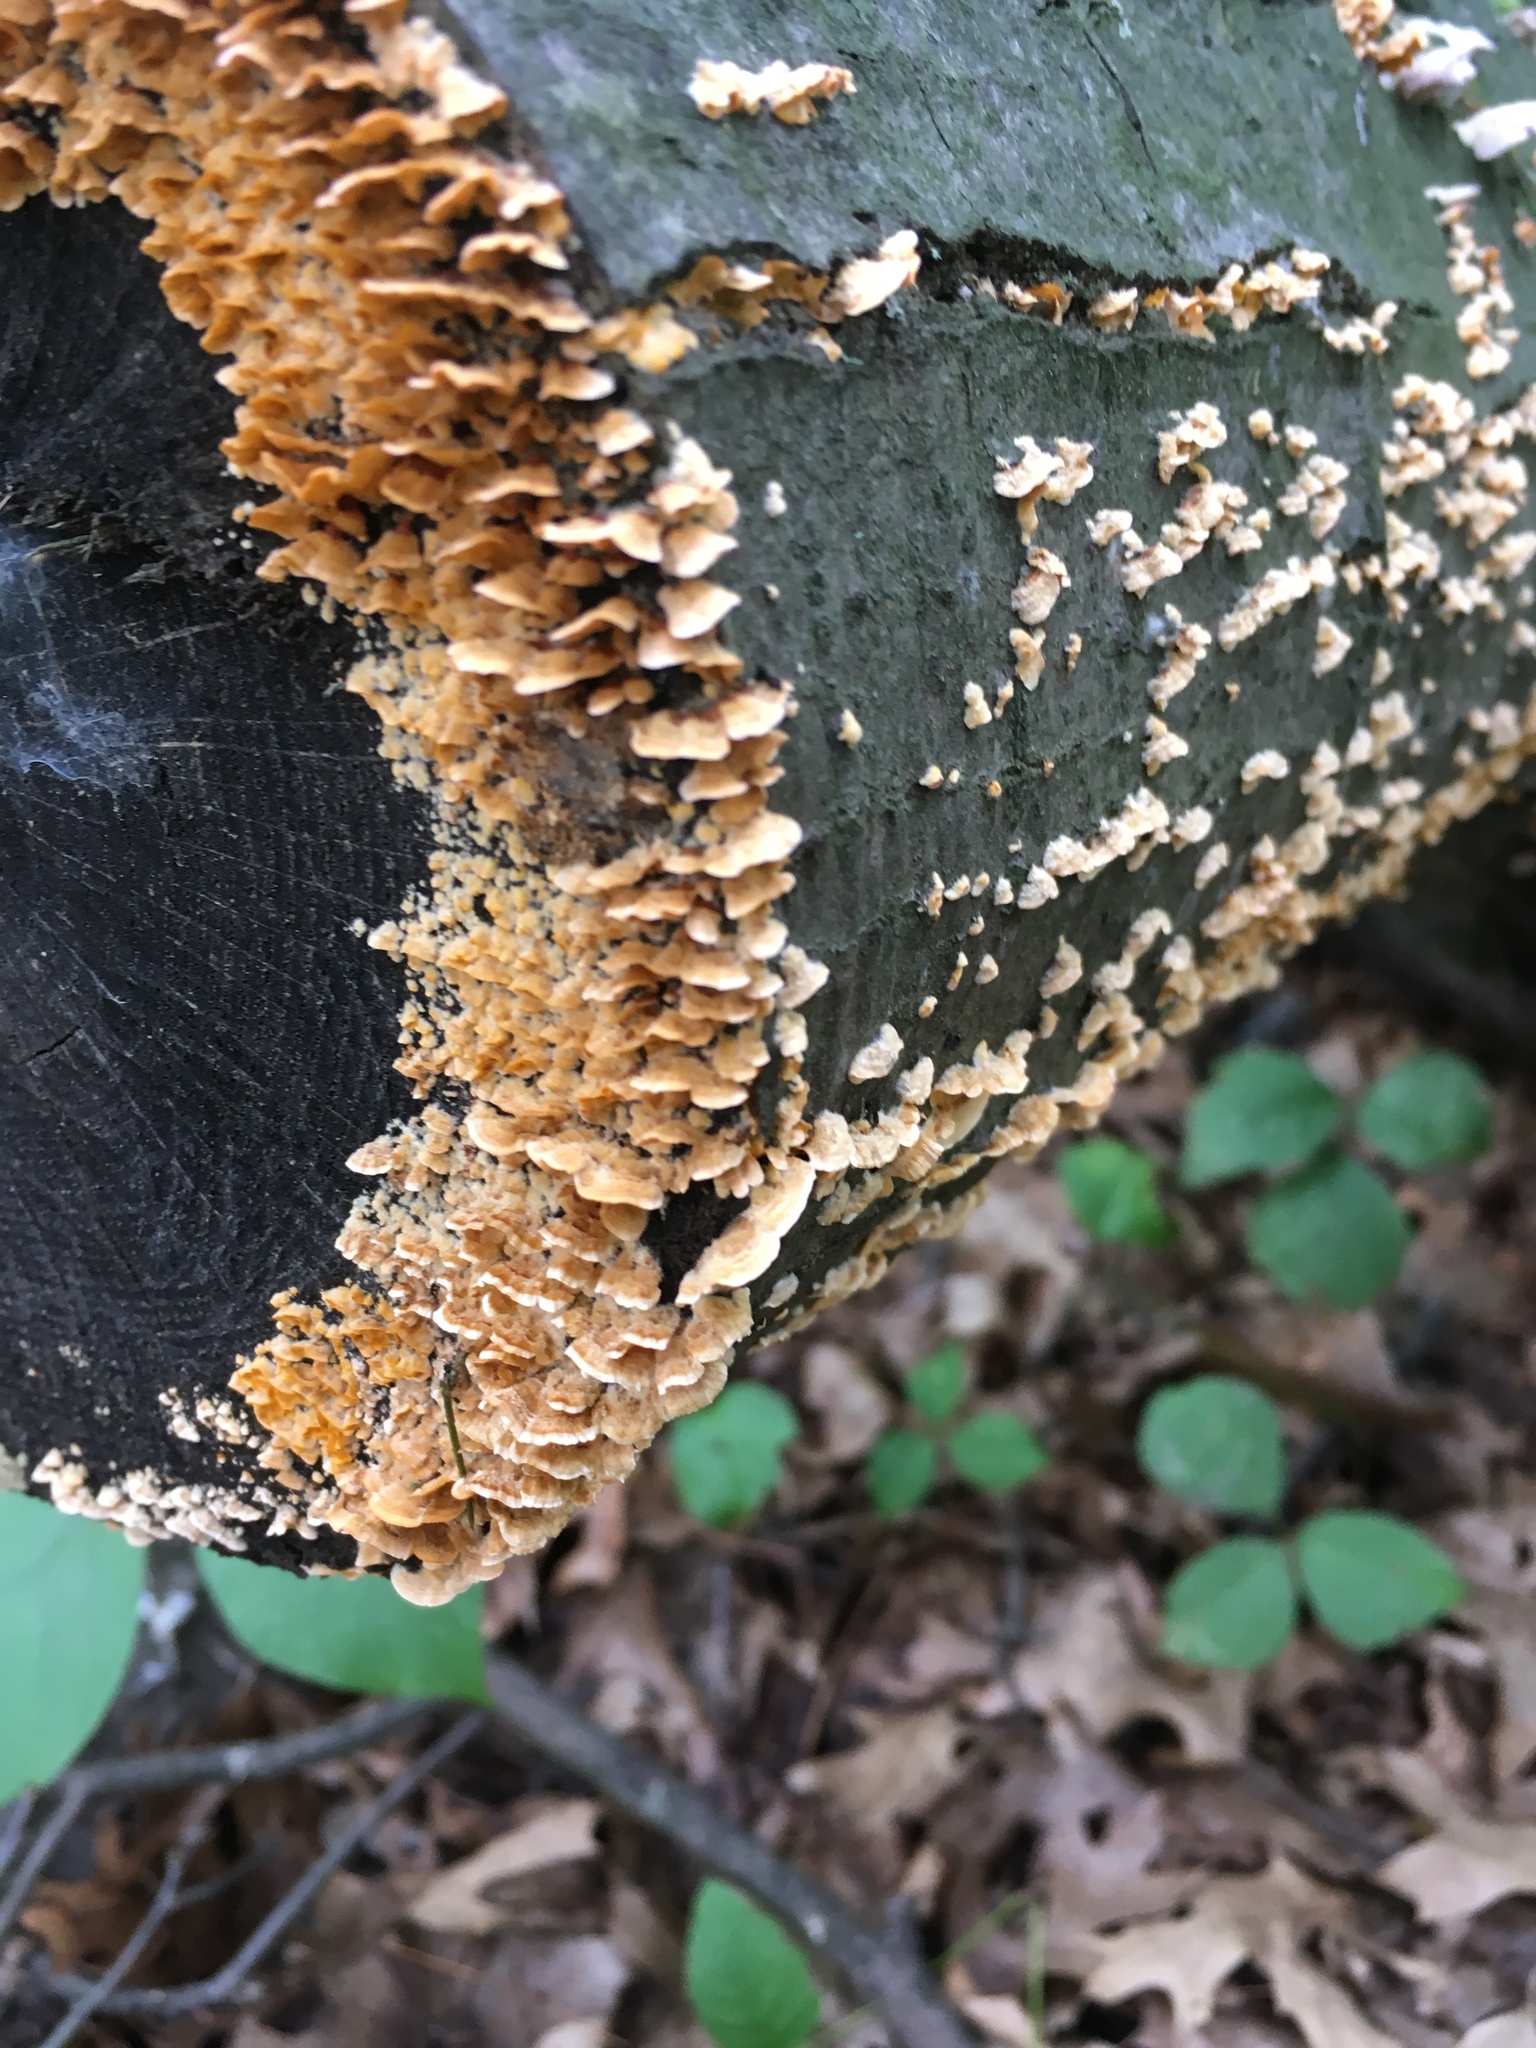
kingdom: Fungi
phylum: Basidiomycota
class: Agaricomycetes
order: Russulales
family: Stereaceae
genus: Stereum
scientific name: Stereum hirsutum
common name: Hairy curtain crust
